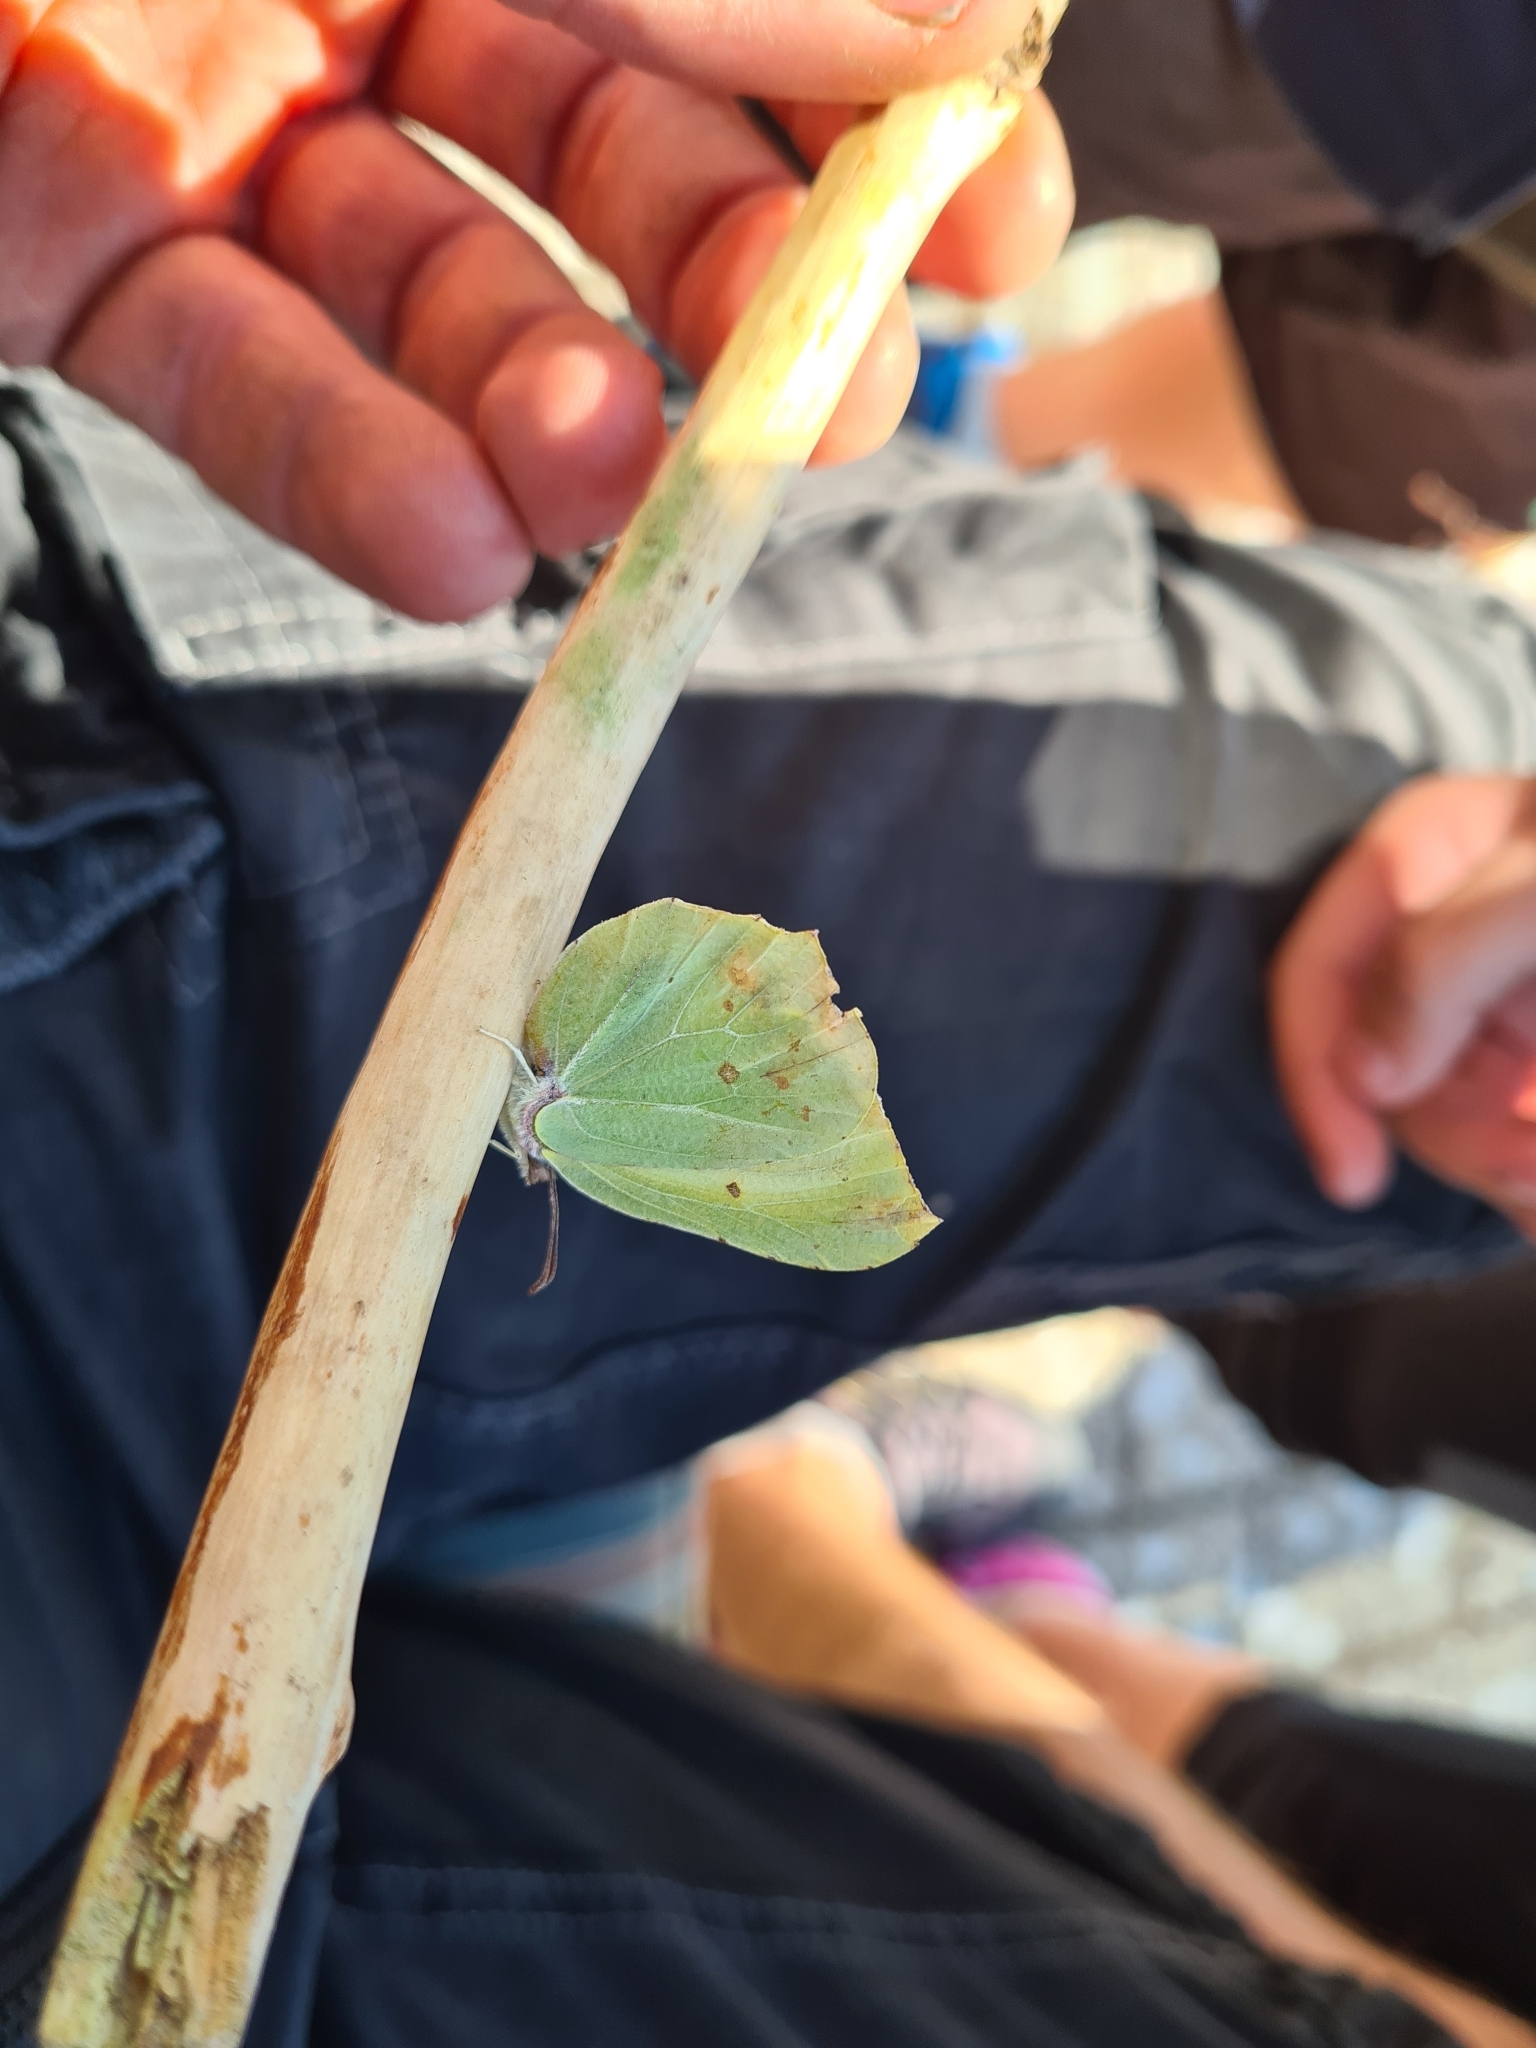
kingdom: Animalia
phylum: Arthropoda
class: Insecta
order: Lepidoptera
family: Pieridae
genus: Gonepteryx
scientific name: Gonepteryx rhamni
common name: Brimstone
